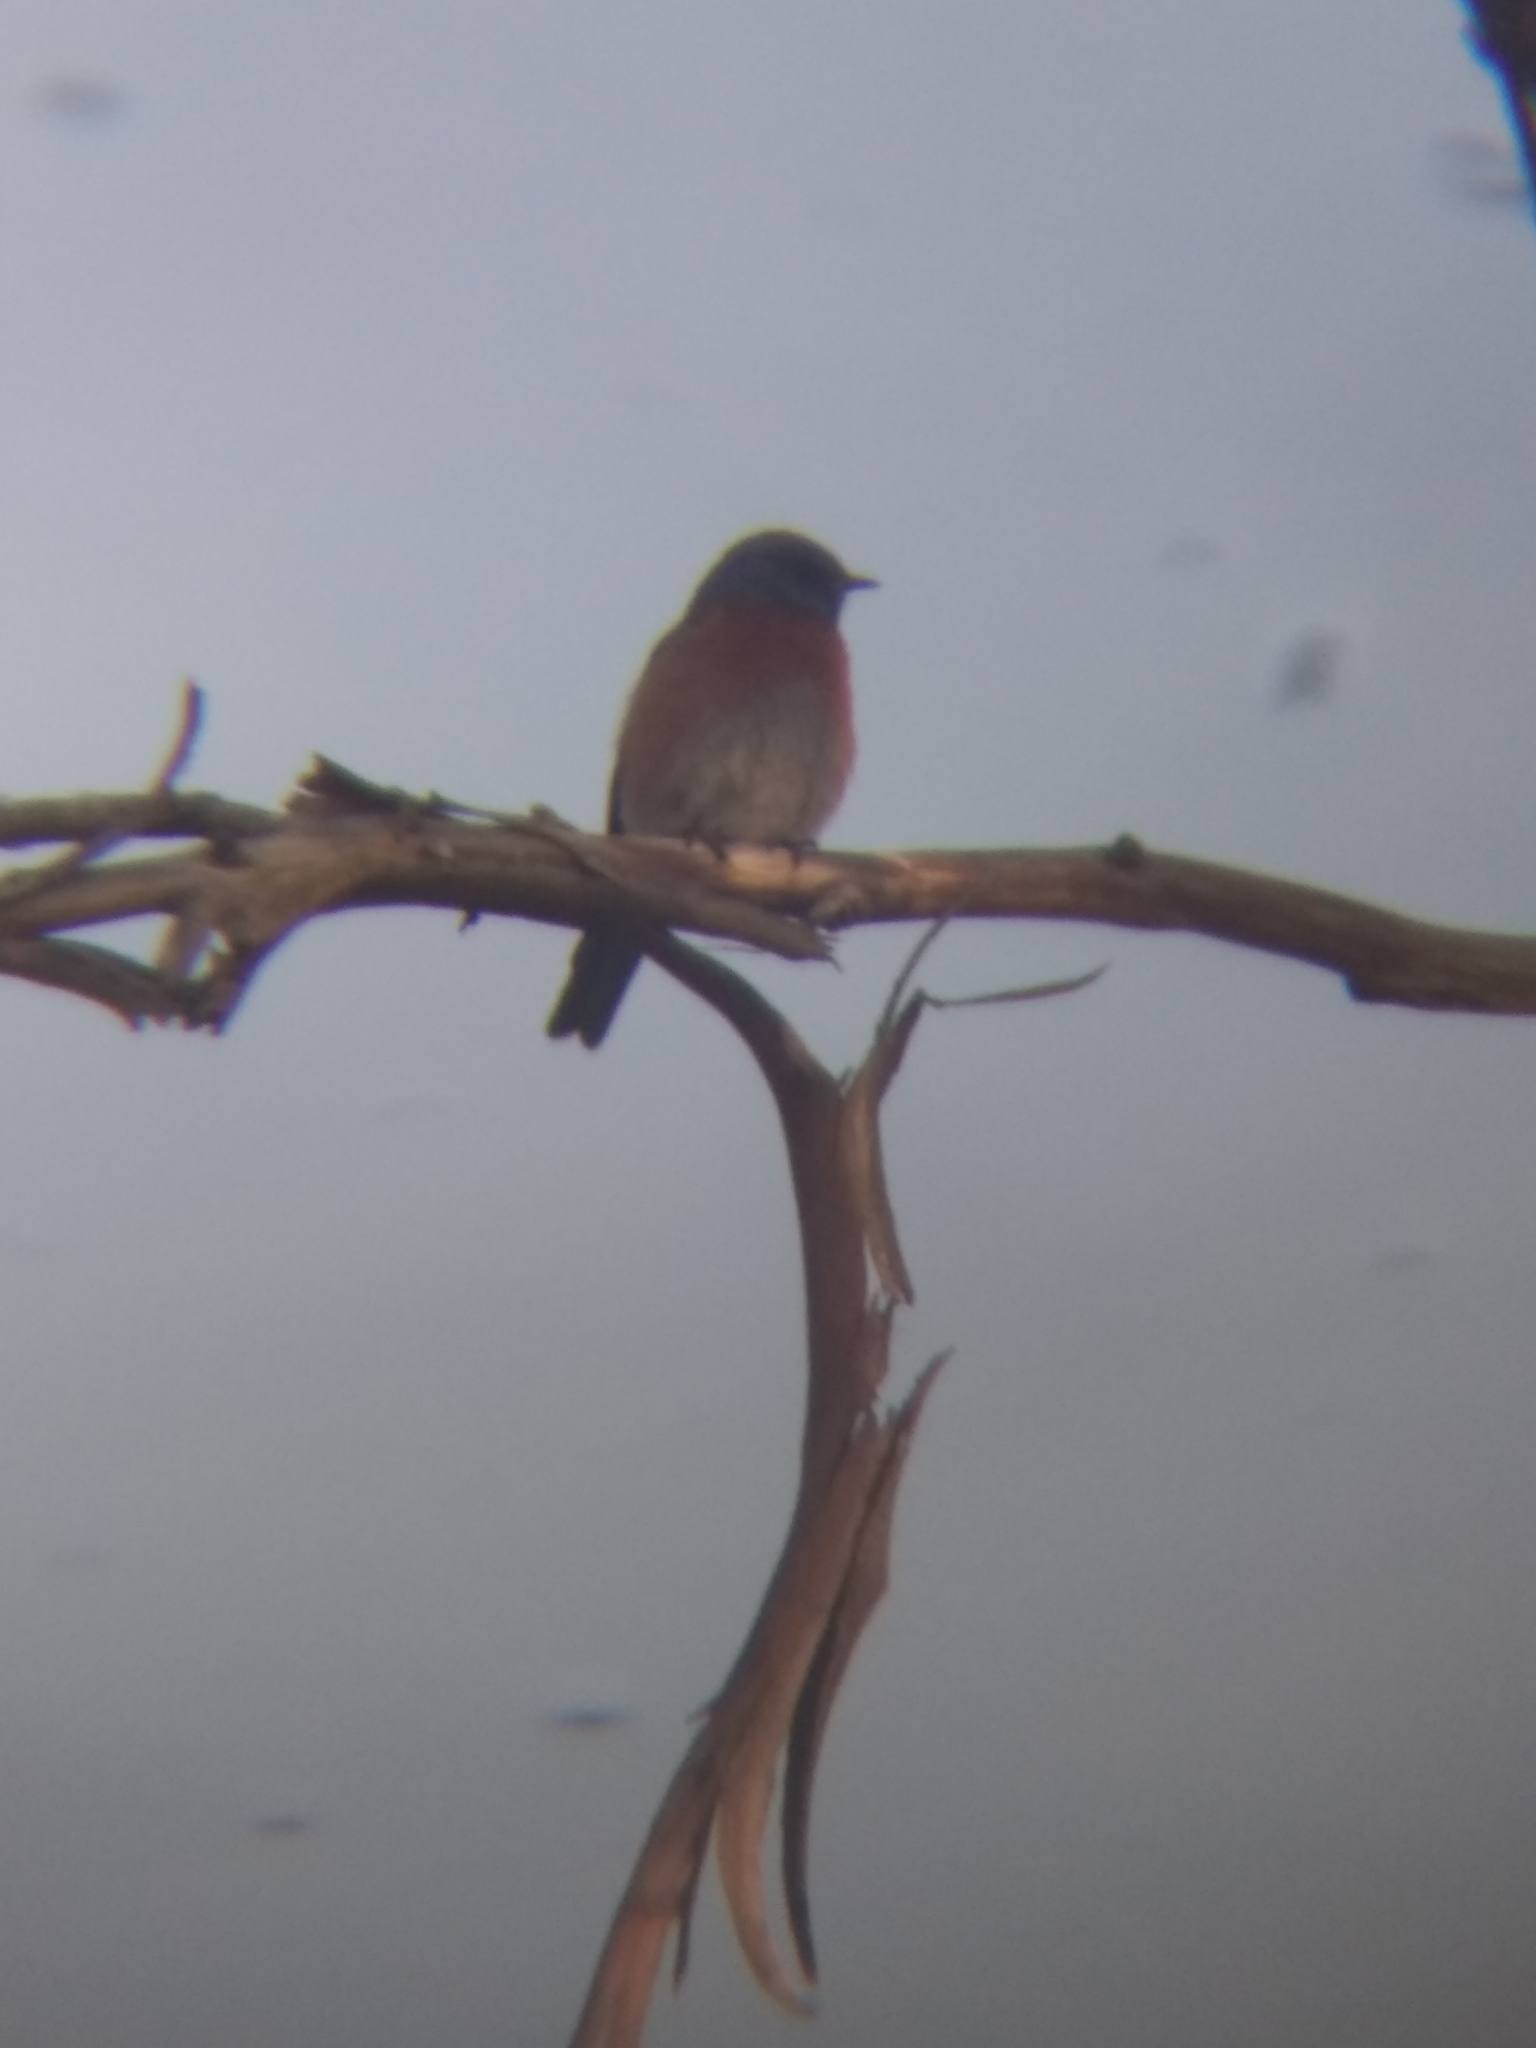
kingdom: Animalia
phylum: Chordata
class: Aves
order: Passeriformes
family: Turdidae
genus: Sialia
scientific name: Sialia mexicana
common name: Western bluebird
